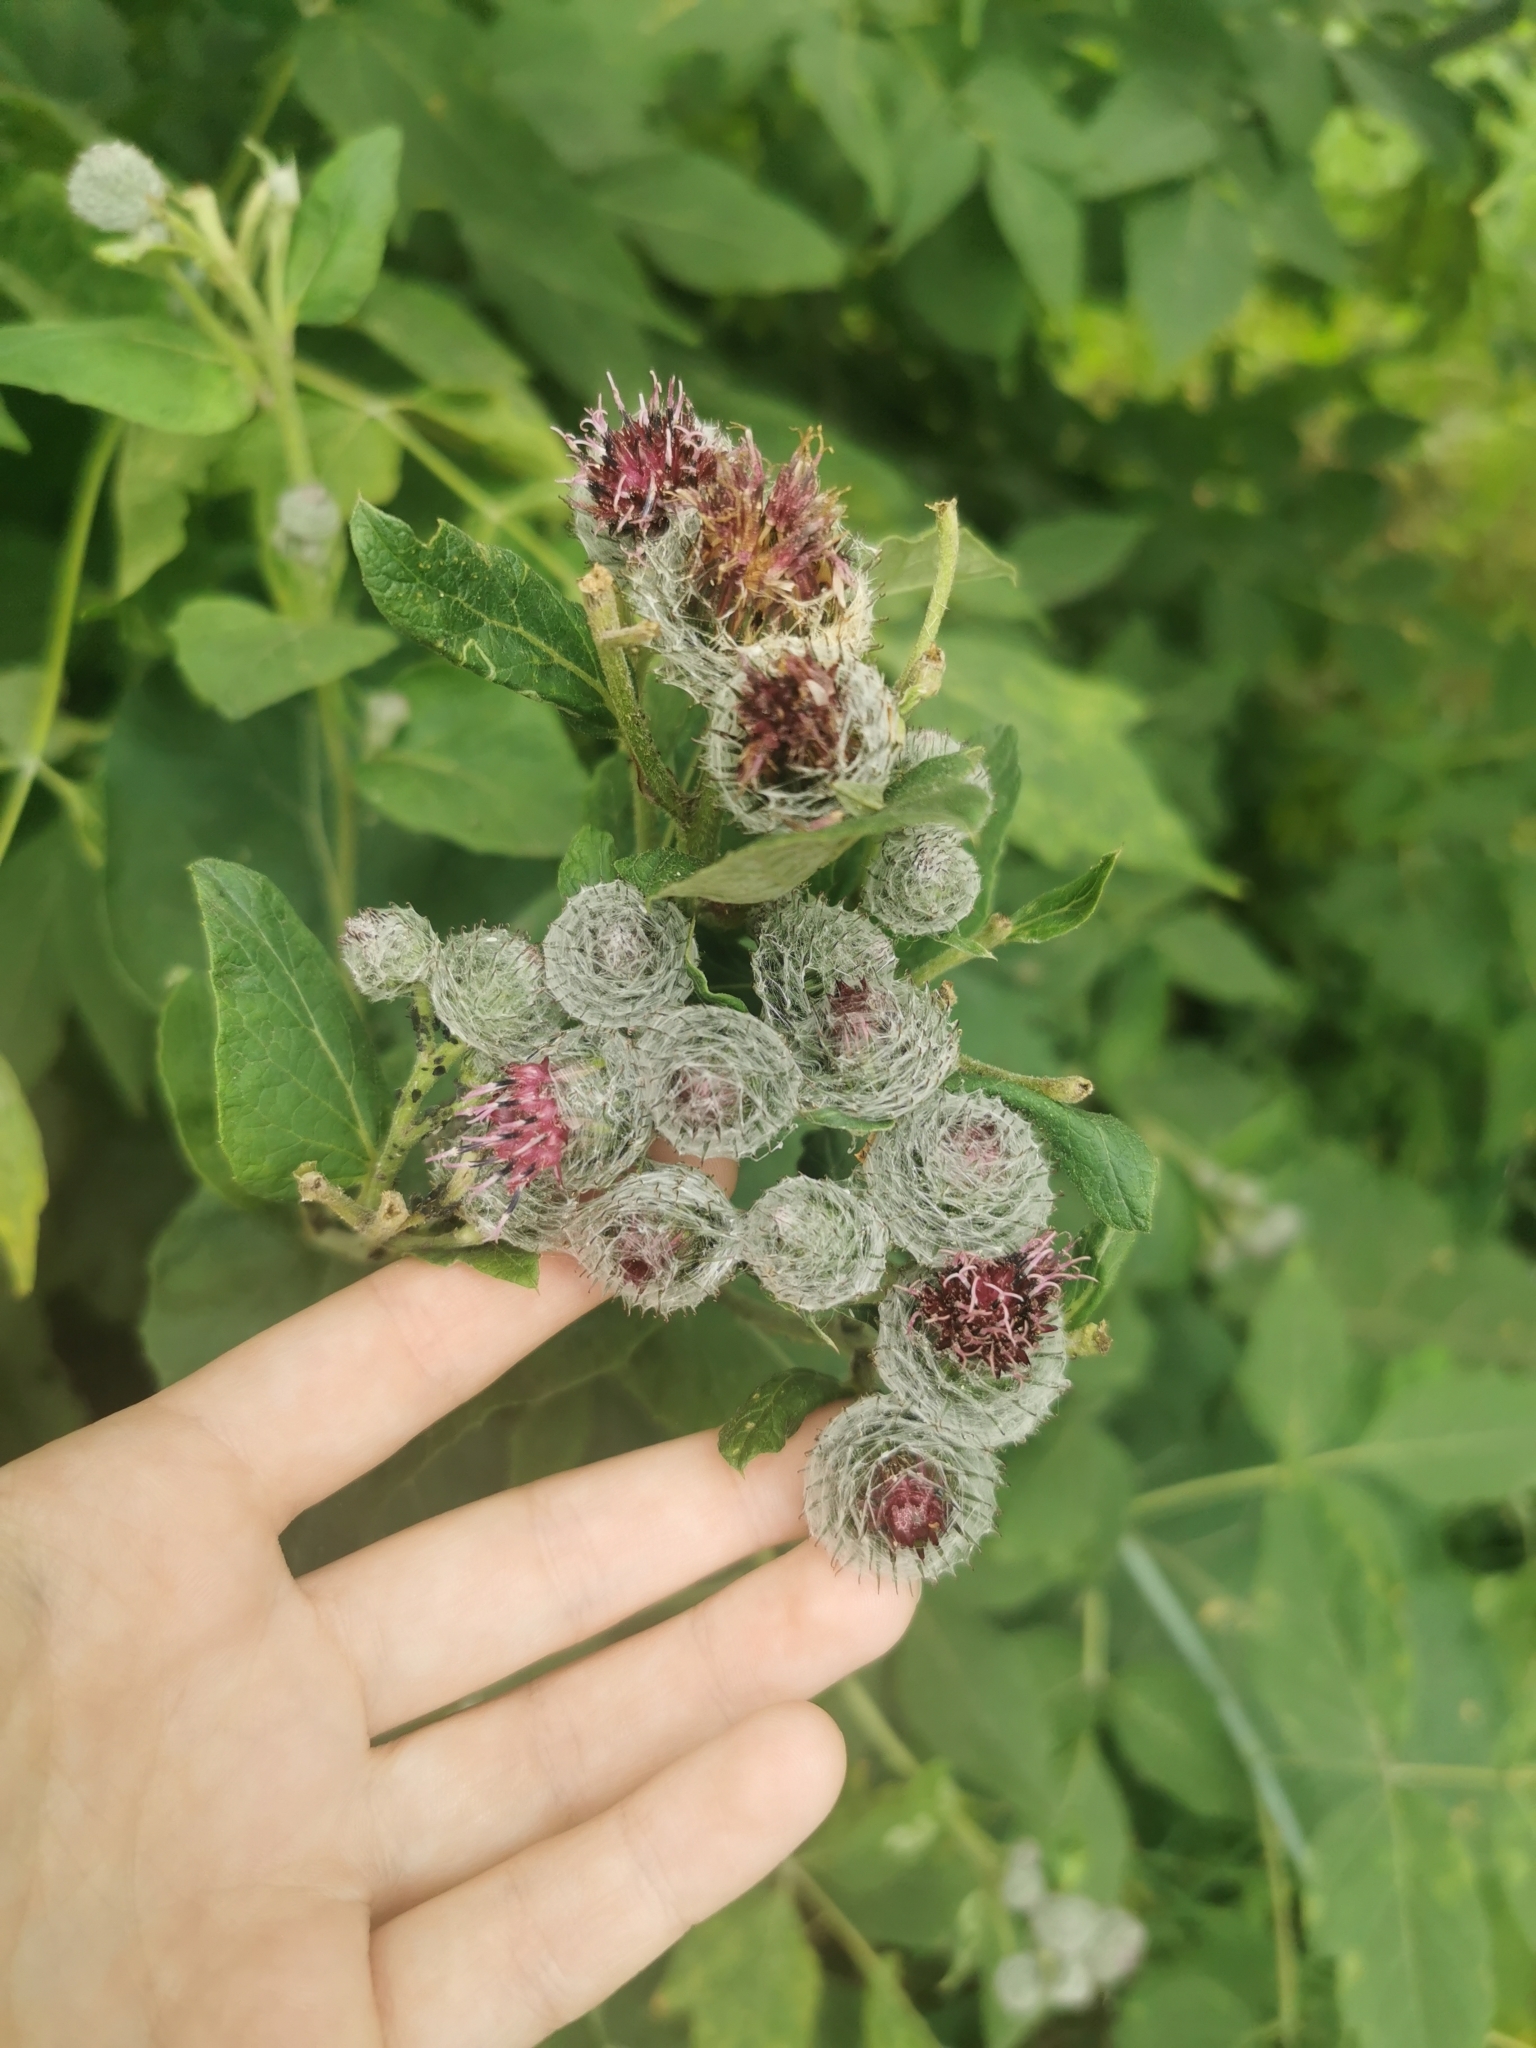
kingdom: Plantae
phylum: Tracheophyta
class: Magnoliopsida
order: Asterales
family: Asteraceae
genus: Arctium
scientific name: Arctium tomentosum
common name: Woolly burdock
